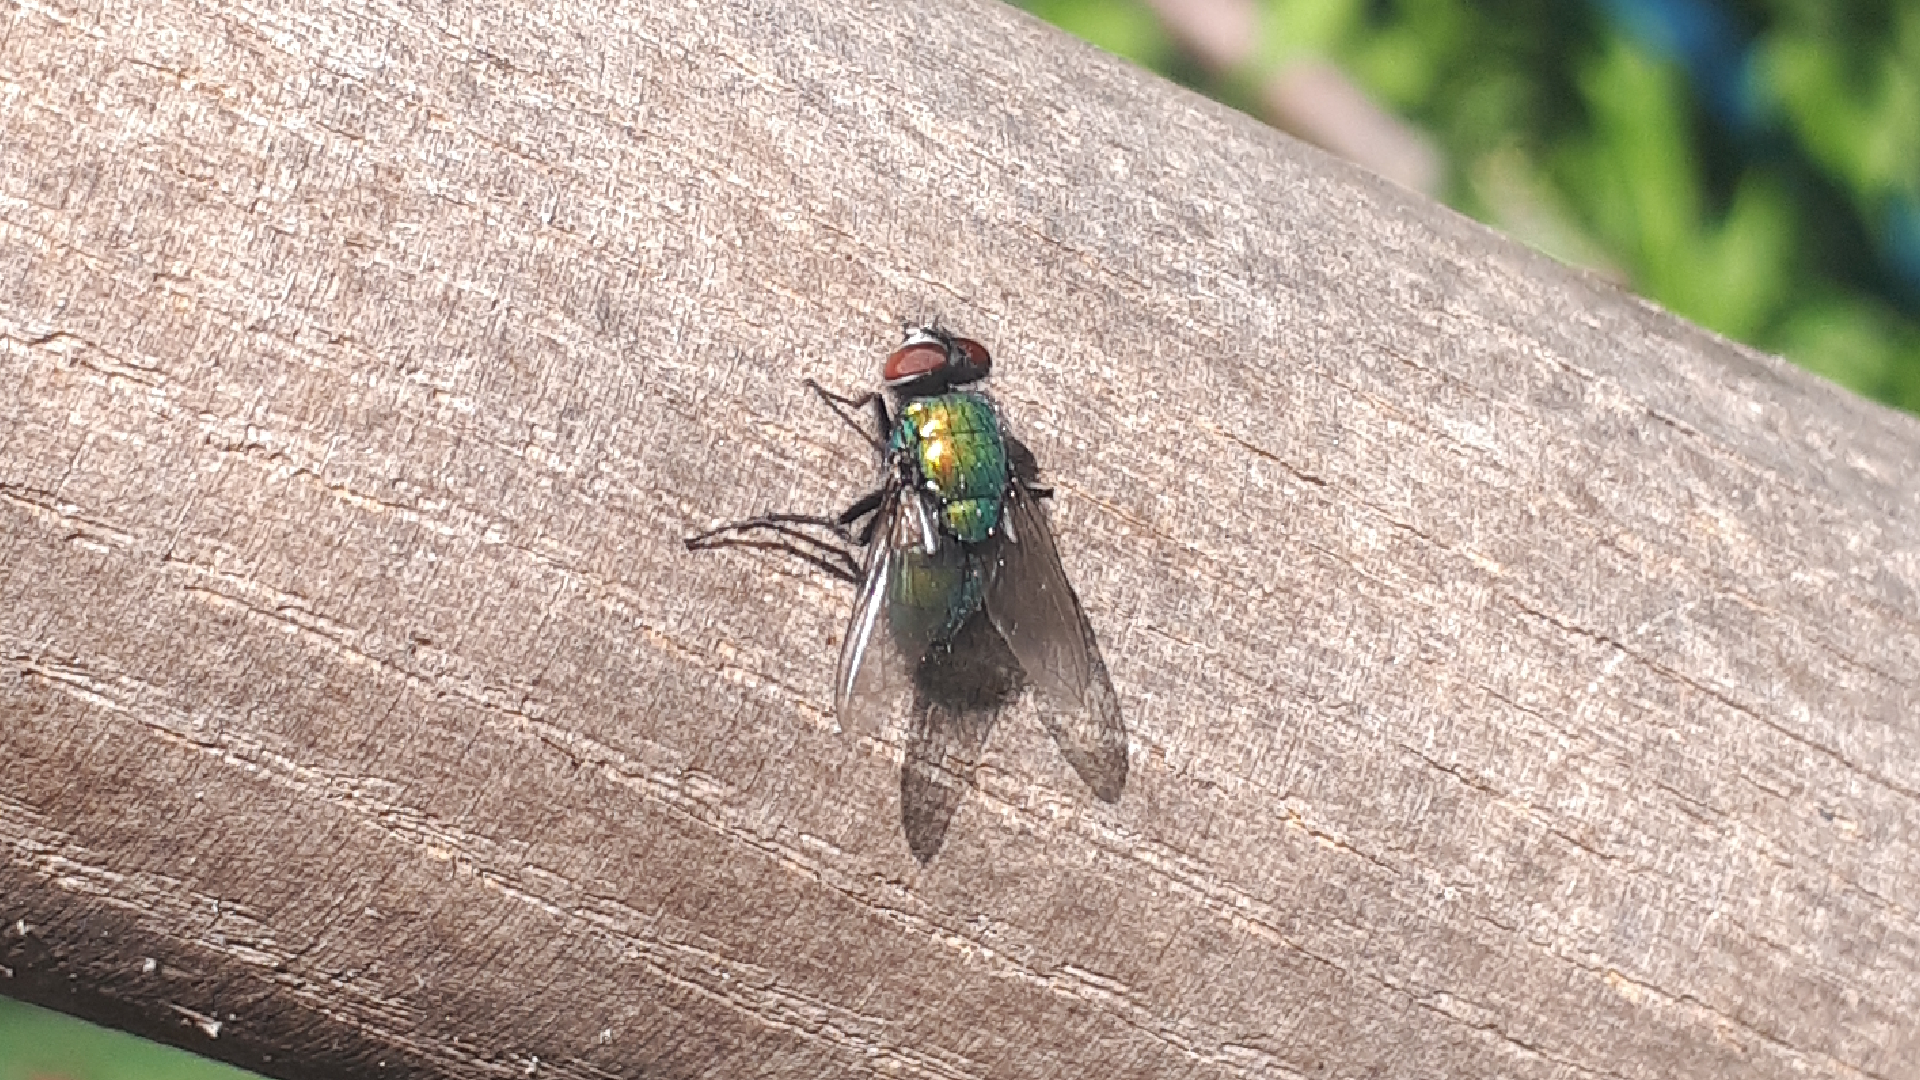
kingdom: Animalia
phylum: Arthropoda
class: Insecta
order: Diptera
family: Calliphoridae
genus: Lucilia
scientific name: Lucilia
